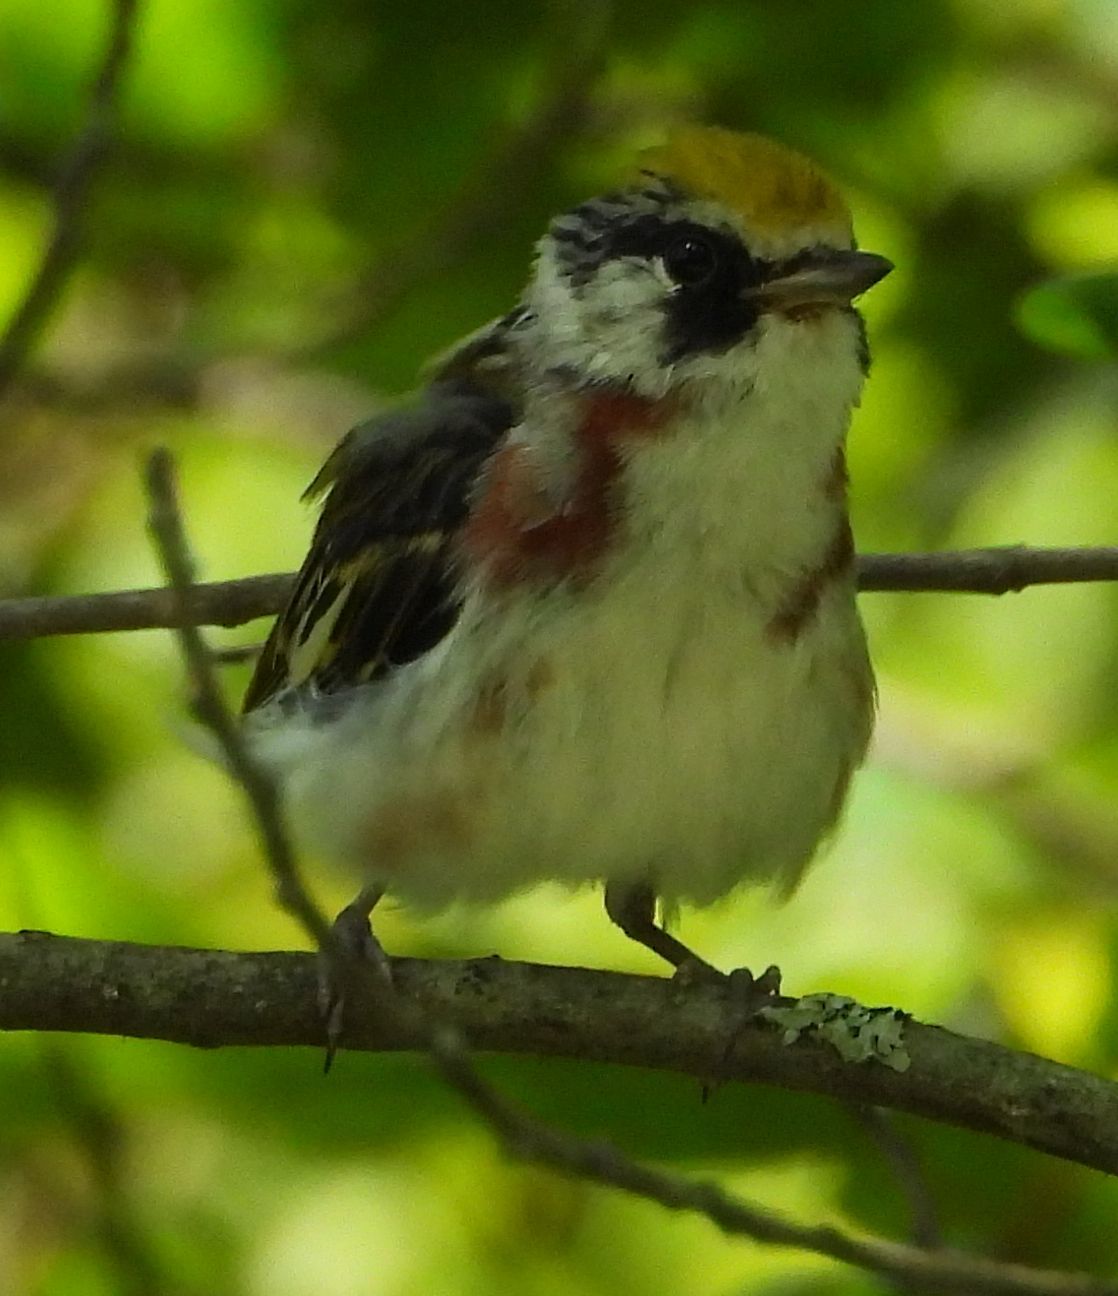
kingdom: Animalia
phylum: Chordata
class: Aves
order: Passeriformes
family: Parulidae
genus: Setophaga
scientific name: Setophaga pensylvanica
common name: Chestnut-sided warbler
